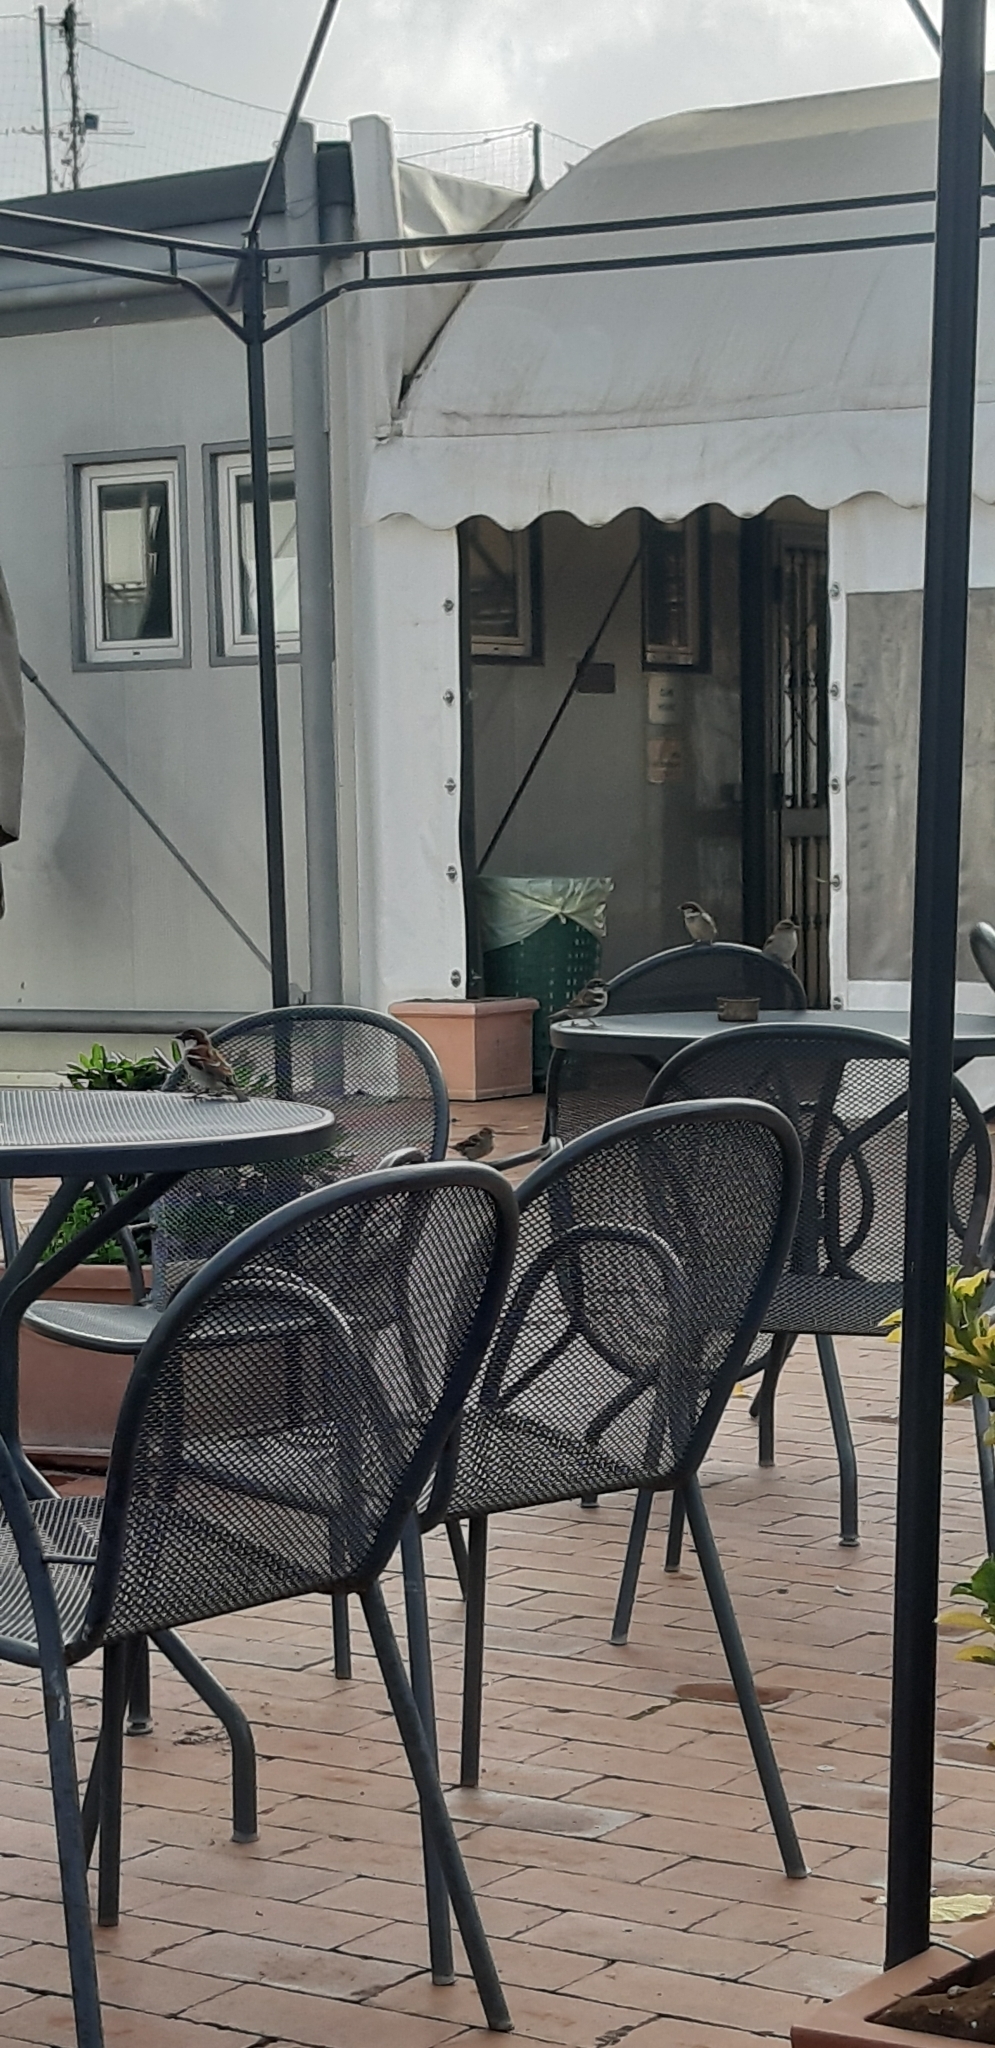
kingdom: Animalia
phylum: Chordata
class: Aves
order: Passeriformes
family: Passeridae
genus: Passer
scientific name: Passer italiae
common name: Italian sparrow
